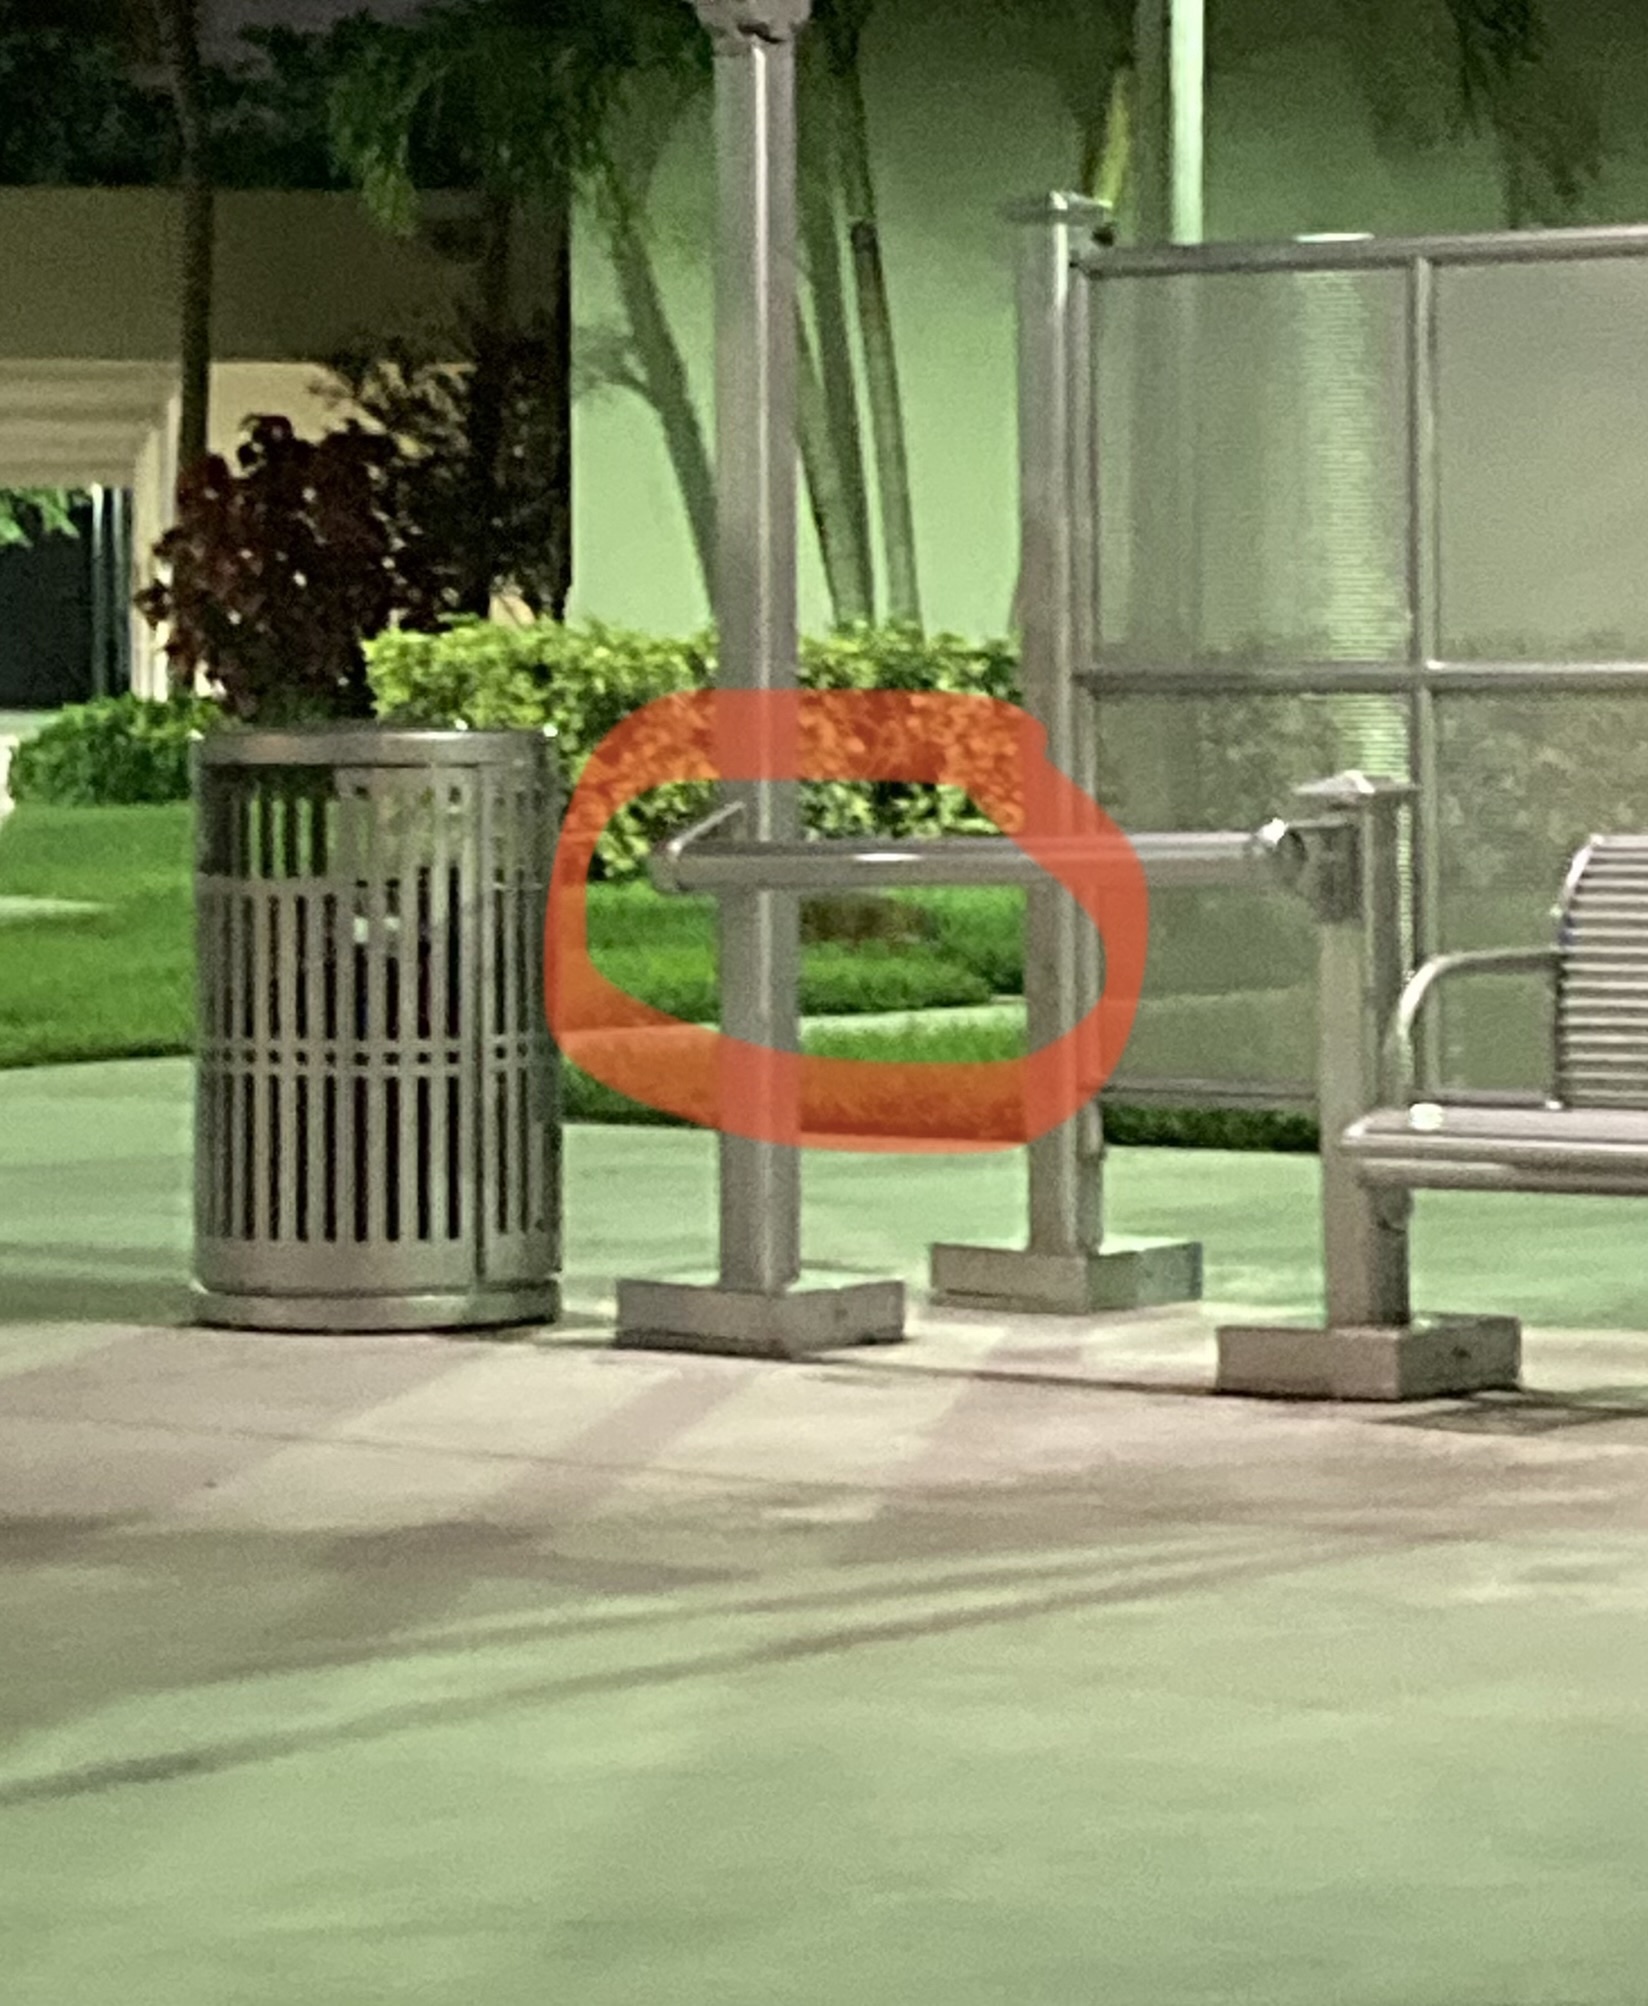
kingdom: Animalia
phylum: Chordata
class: Mammalia
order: Carnivora
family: Canidae
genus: Urocyon
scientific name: Urocyon cinereoargenteus
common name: Gray fox
